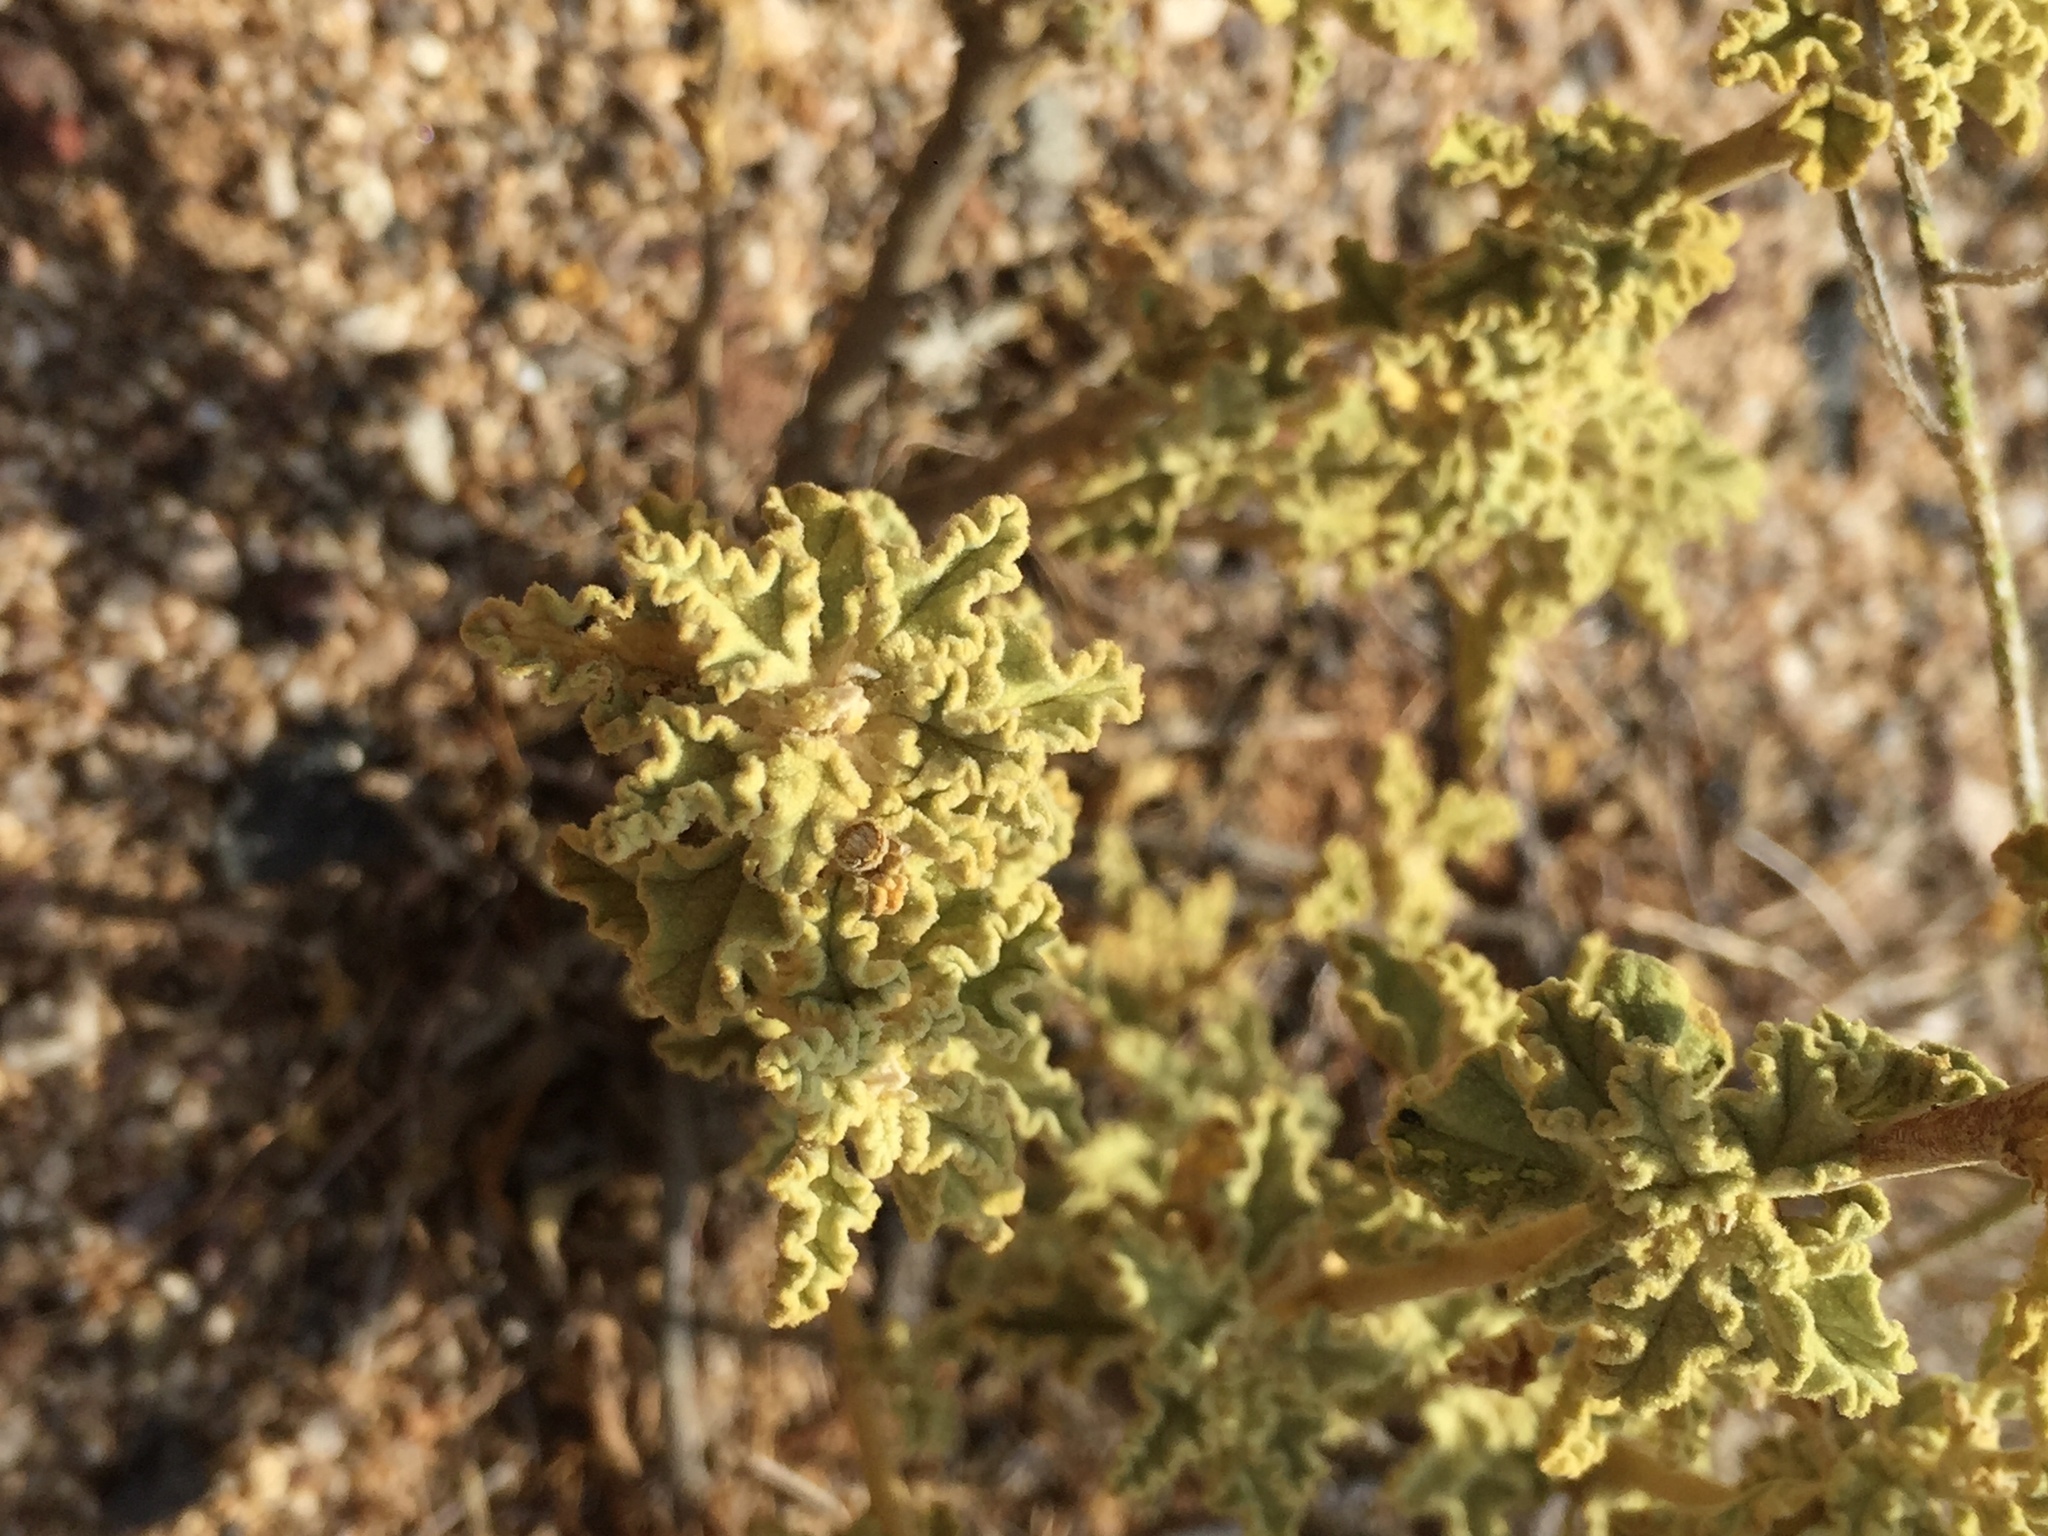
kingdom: Plantae
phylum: Tracheophyta
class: Magnoliopsida
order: Malvales
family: Malvaceae
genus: Sphaeralcea
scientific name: Sphaeralcea ambigua
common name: Apricot globe-mallow
